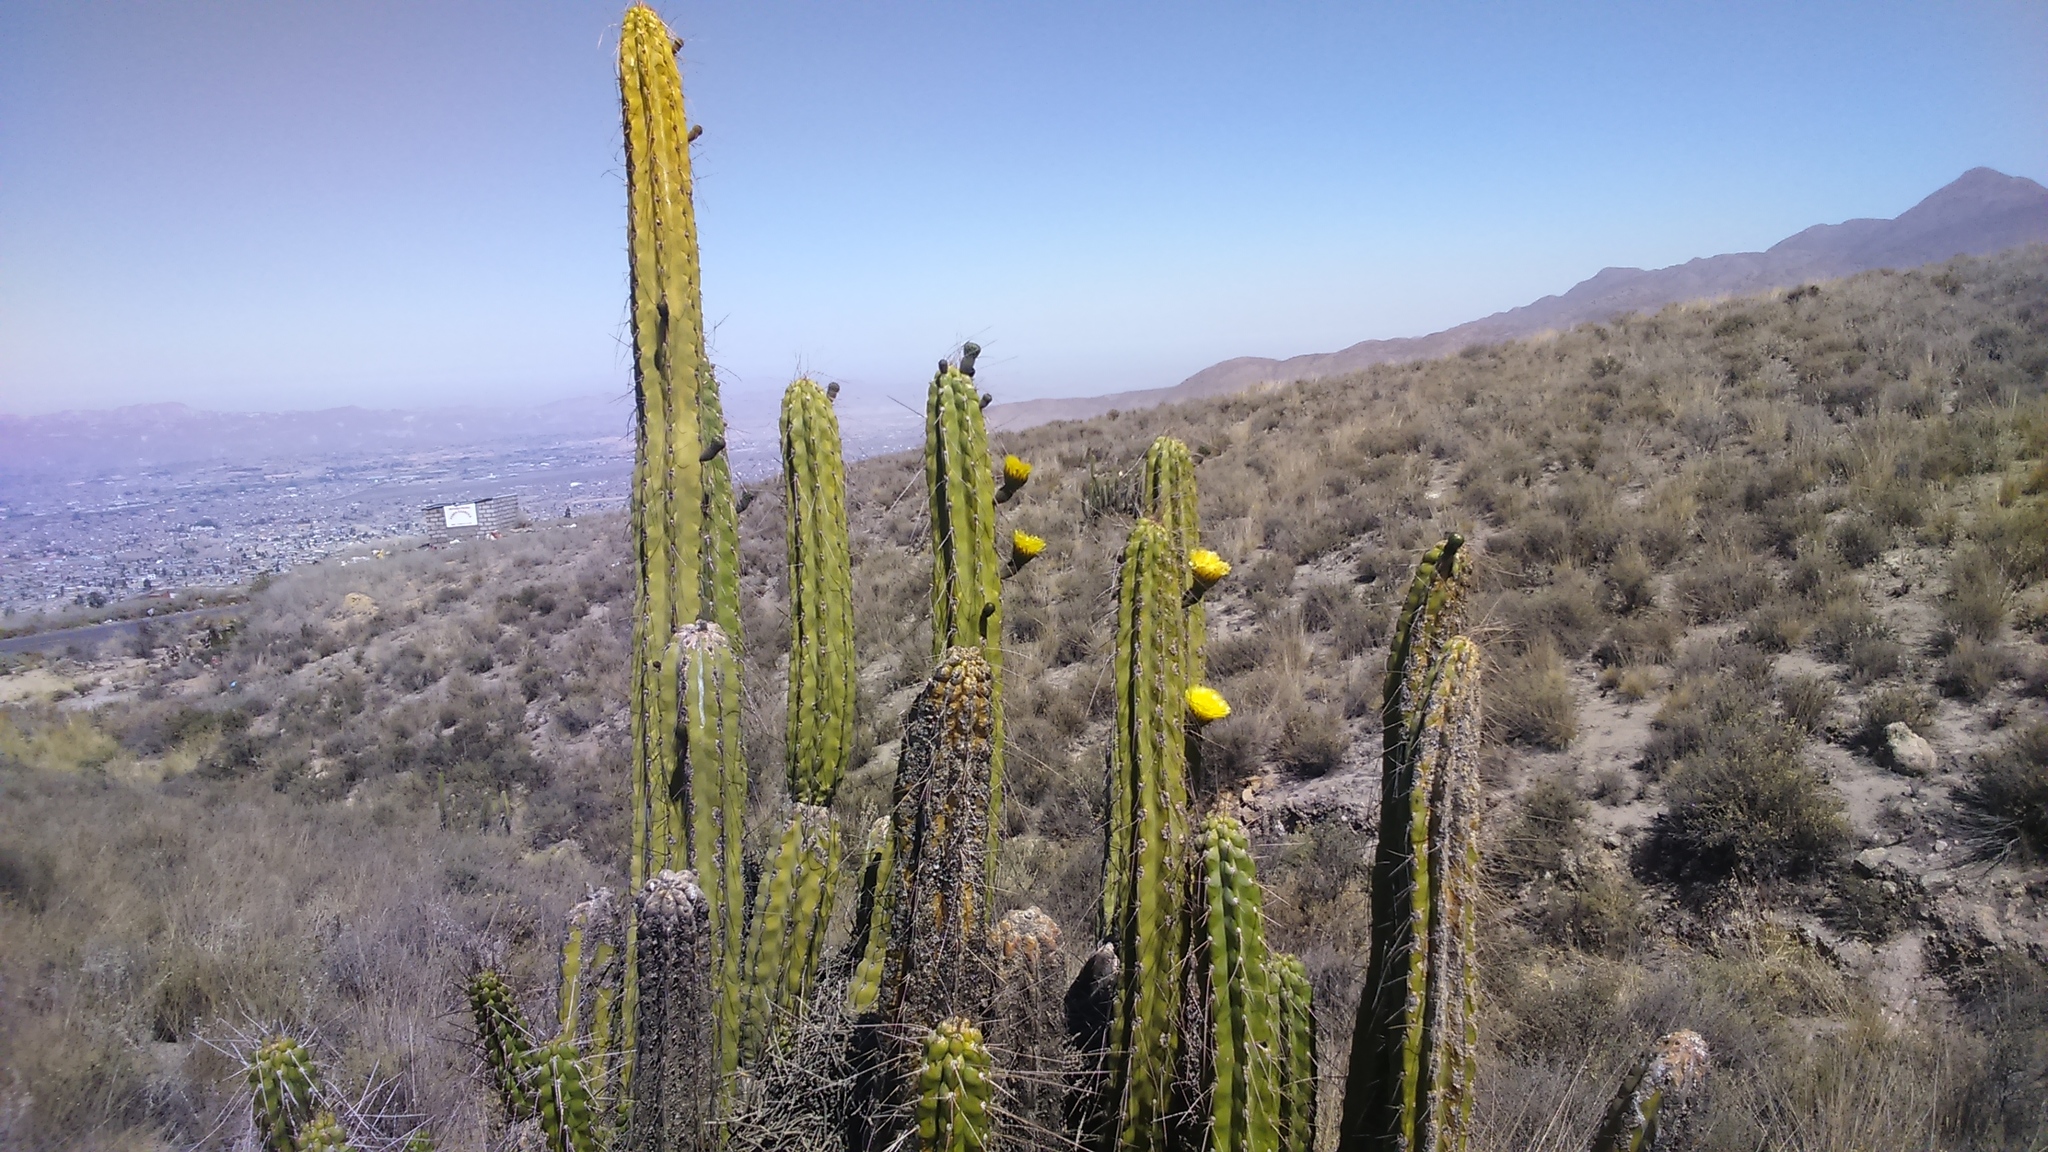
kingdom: Plantae
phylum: Tracheophyta
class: Magnoliopsida
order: Caryophyllales
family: Cactaceae
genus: Corryocactus
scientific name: Corryocactus brevistylus
